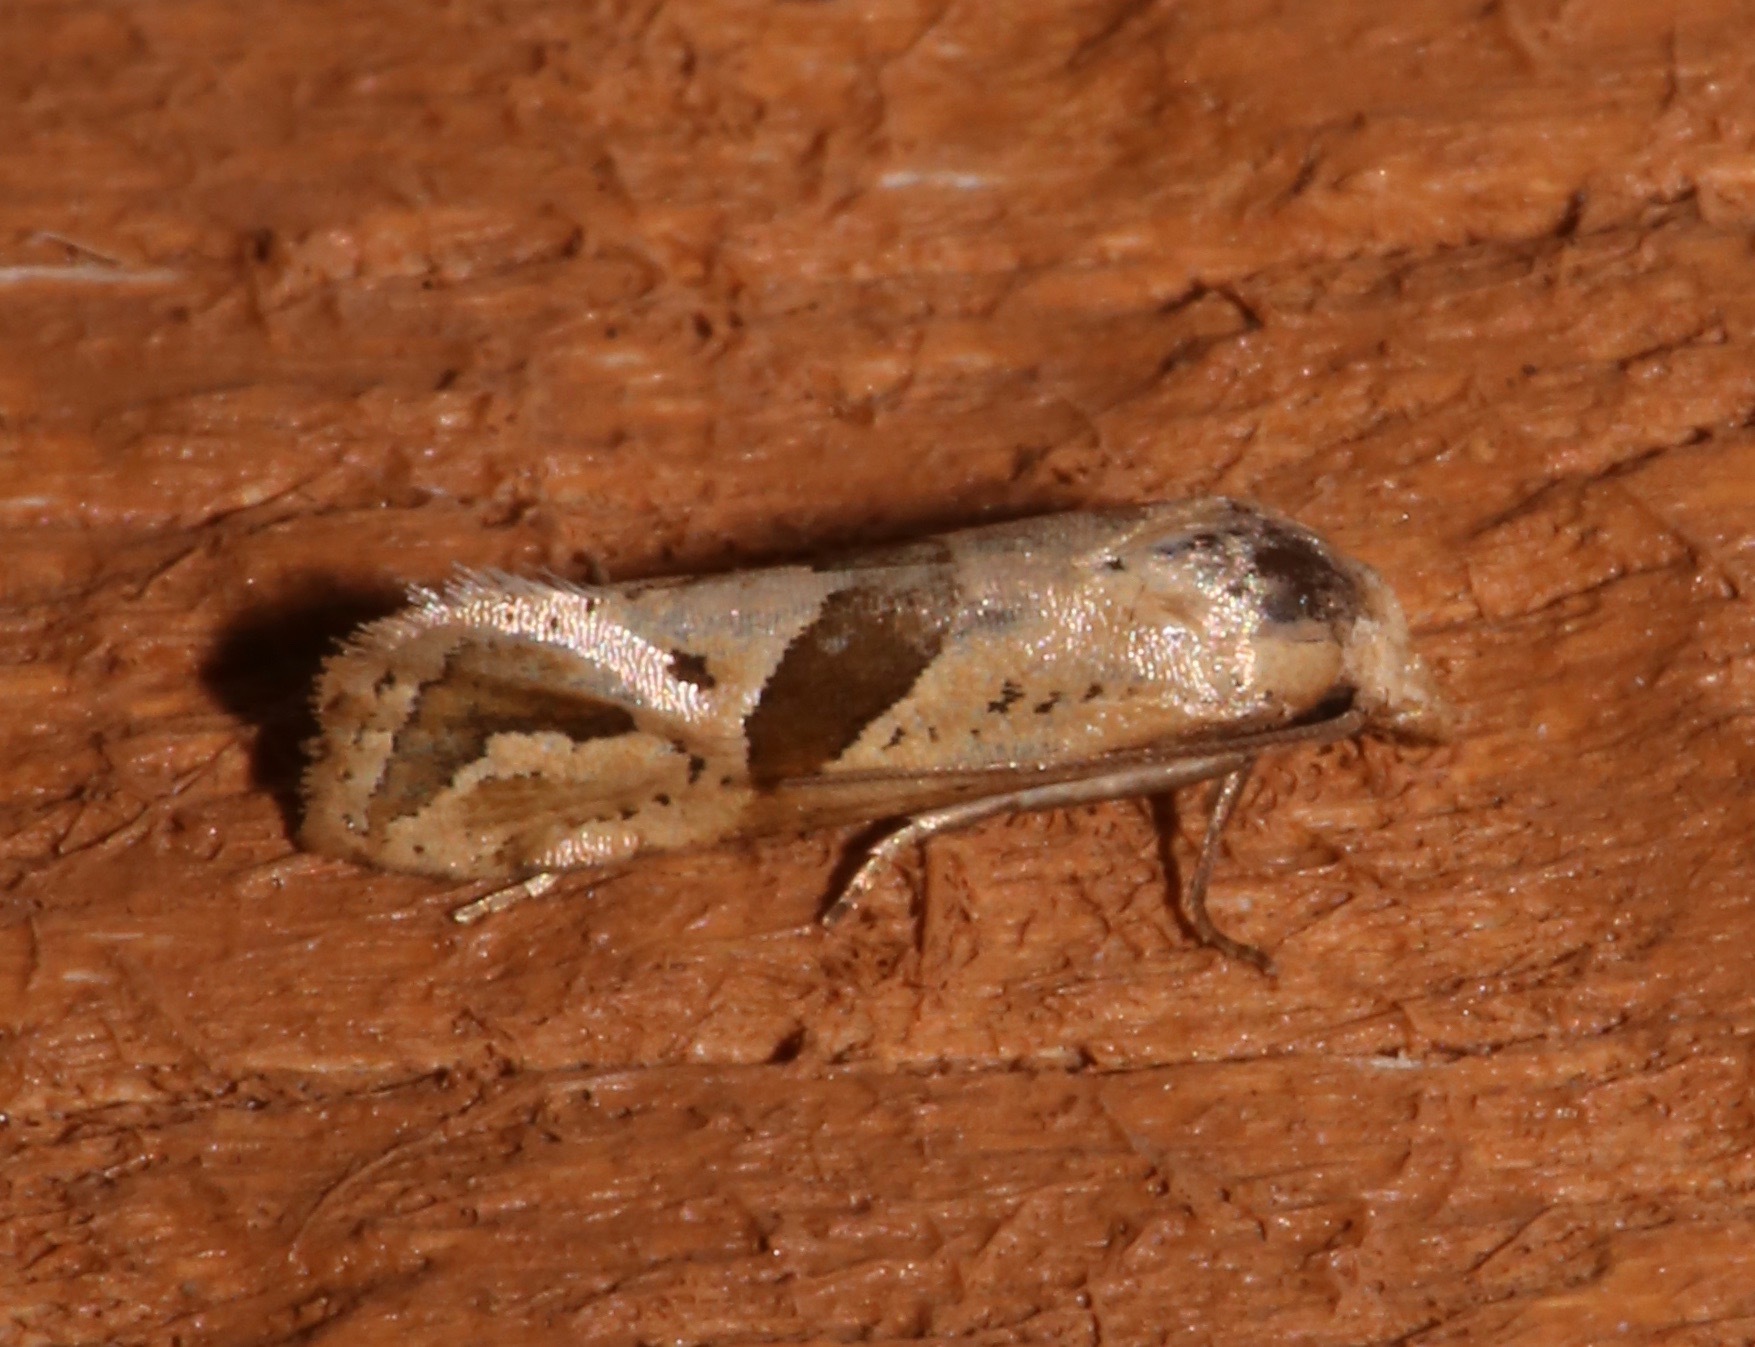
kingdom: Animalia
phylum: Arthropoda
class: Insecta
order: Lepidoptera
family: Tortricidae
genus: Eugnosta
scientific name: Eugnosta sartana
